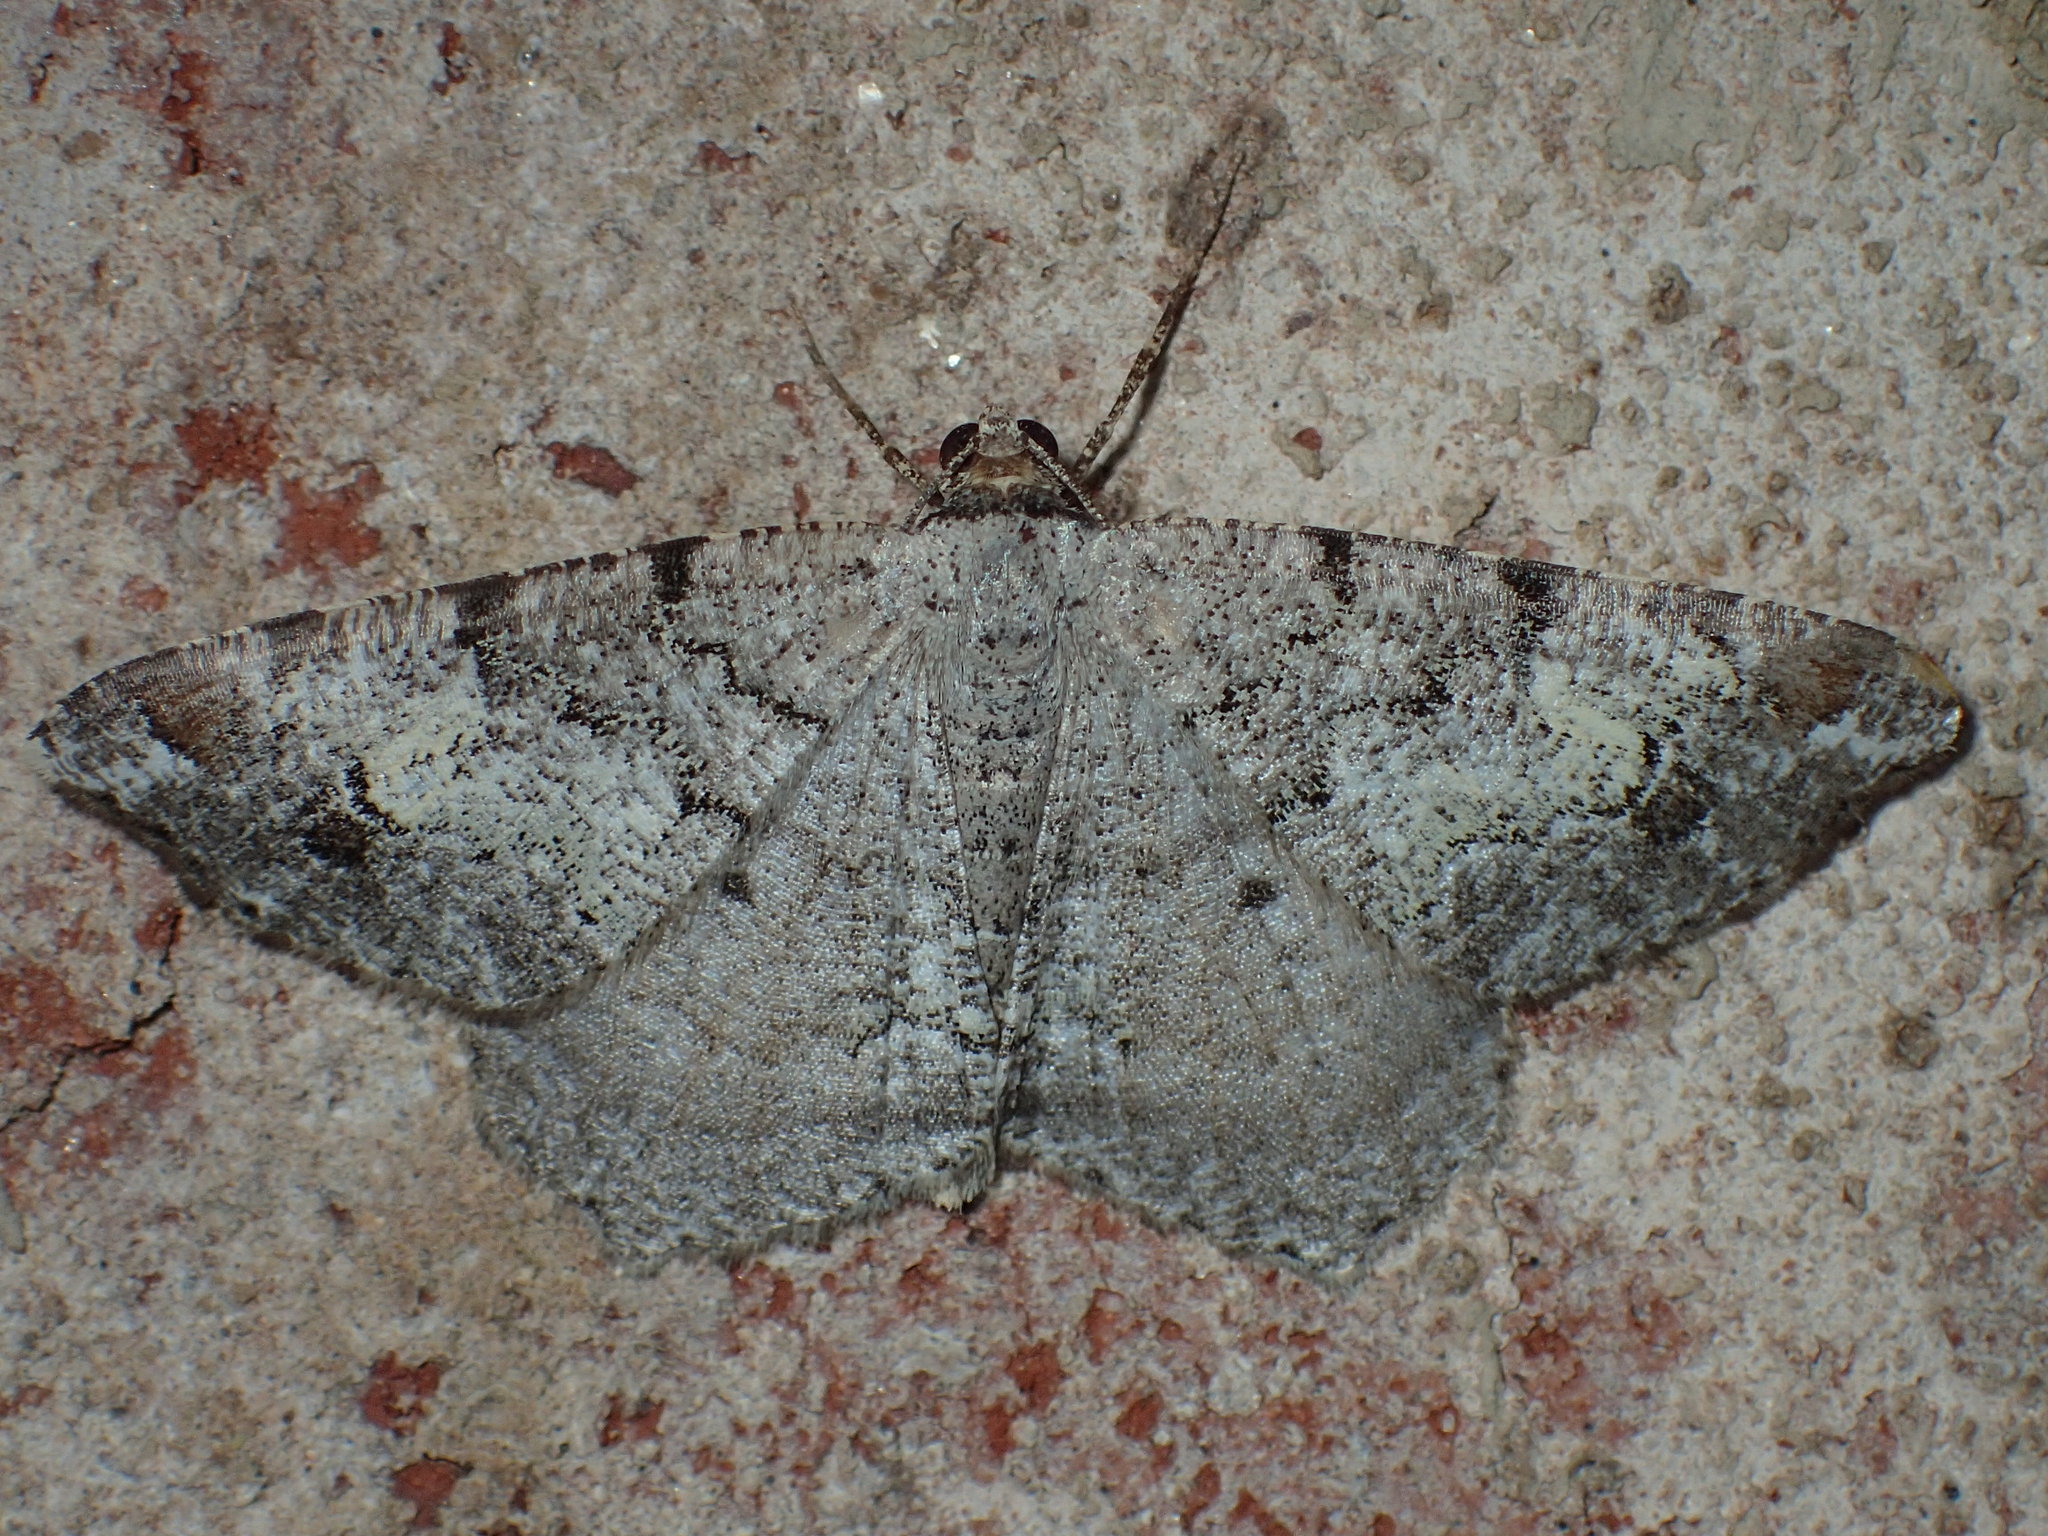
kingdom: Animalia
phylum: Arthropoda
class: Insecta
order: Lepidoptera
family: Geometridae
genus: Macaria
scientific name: Macaria granitata
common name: Granite moth
